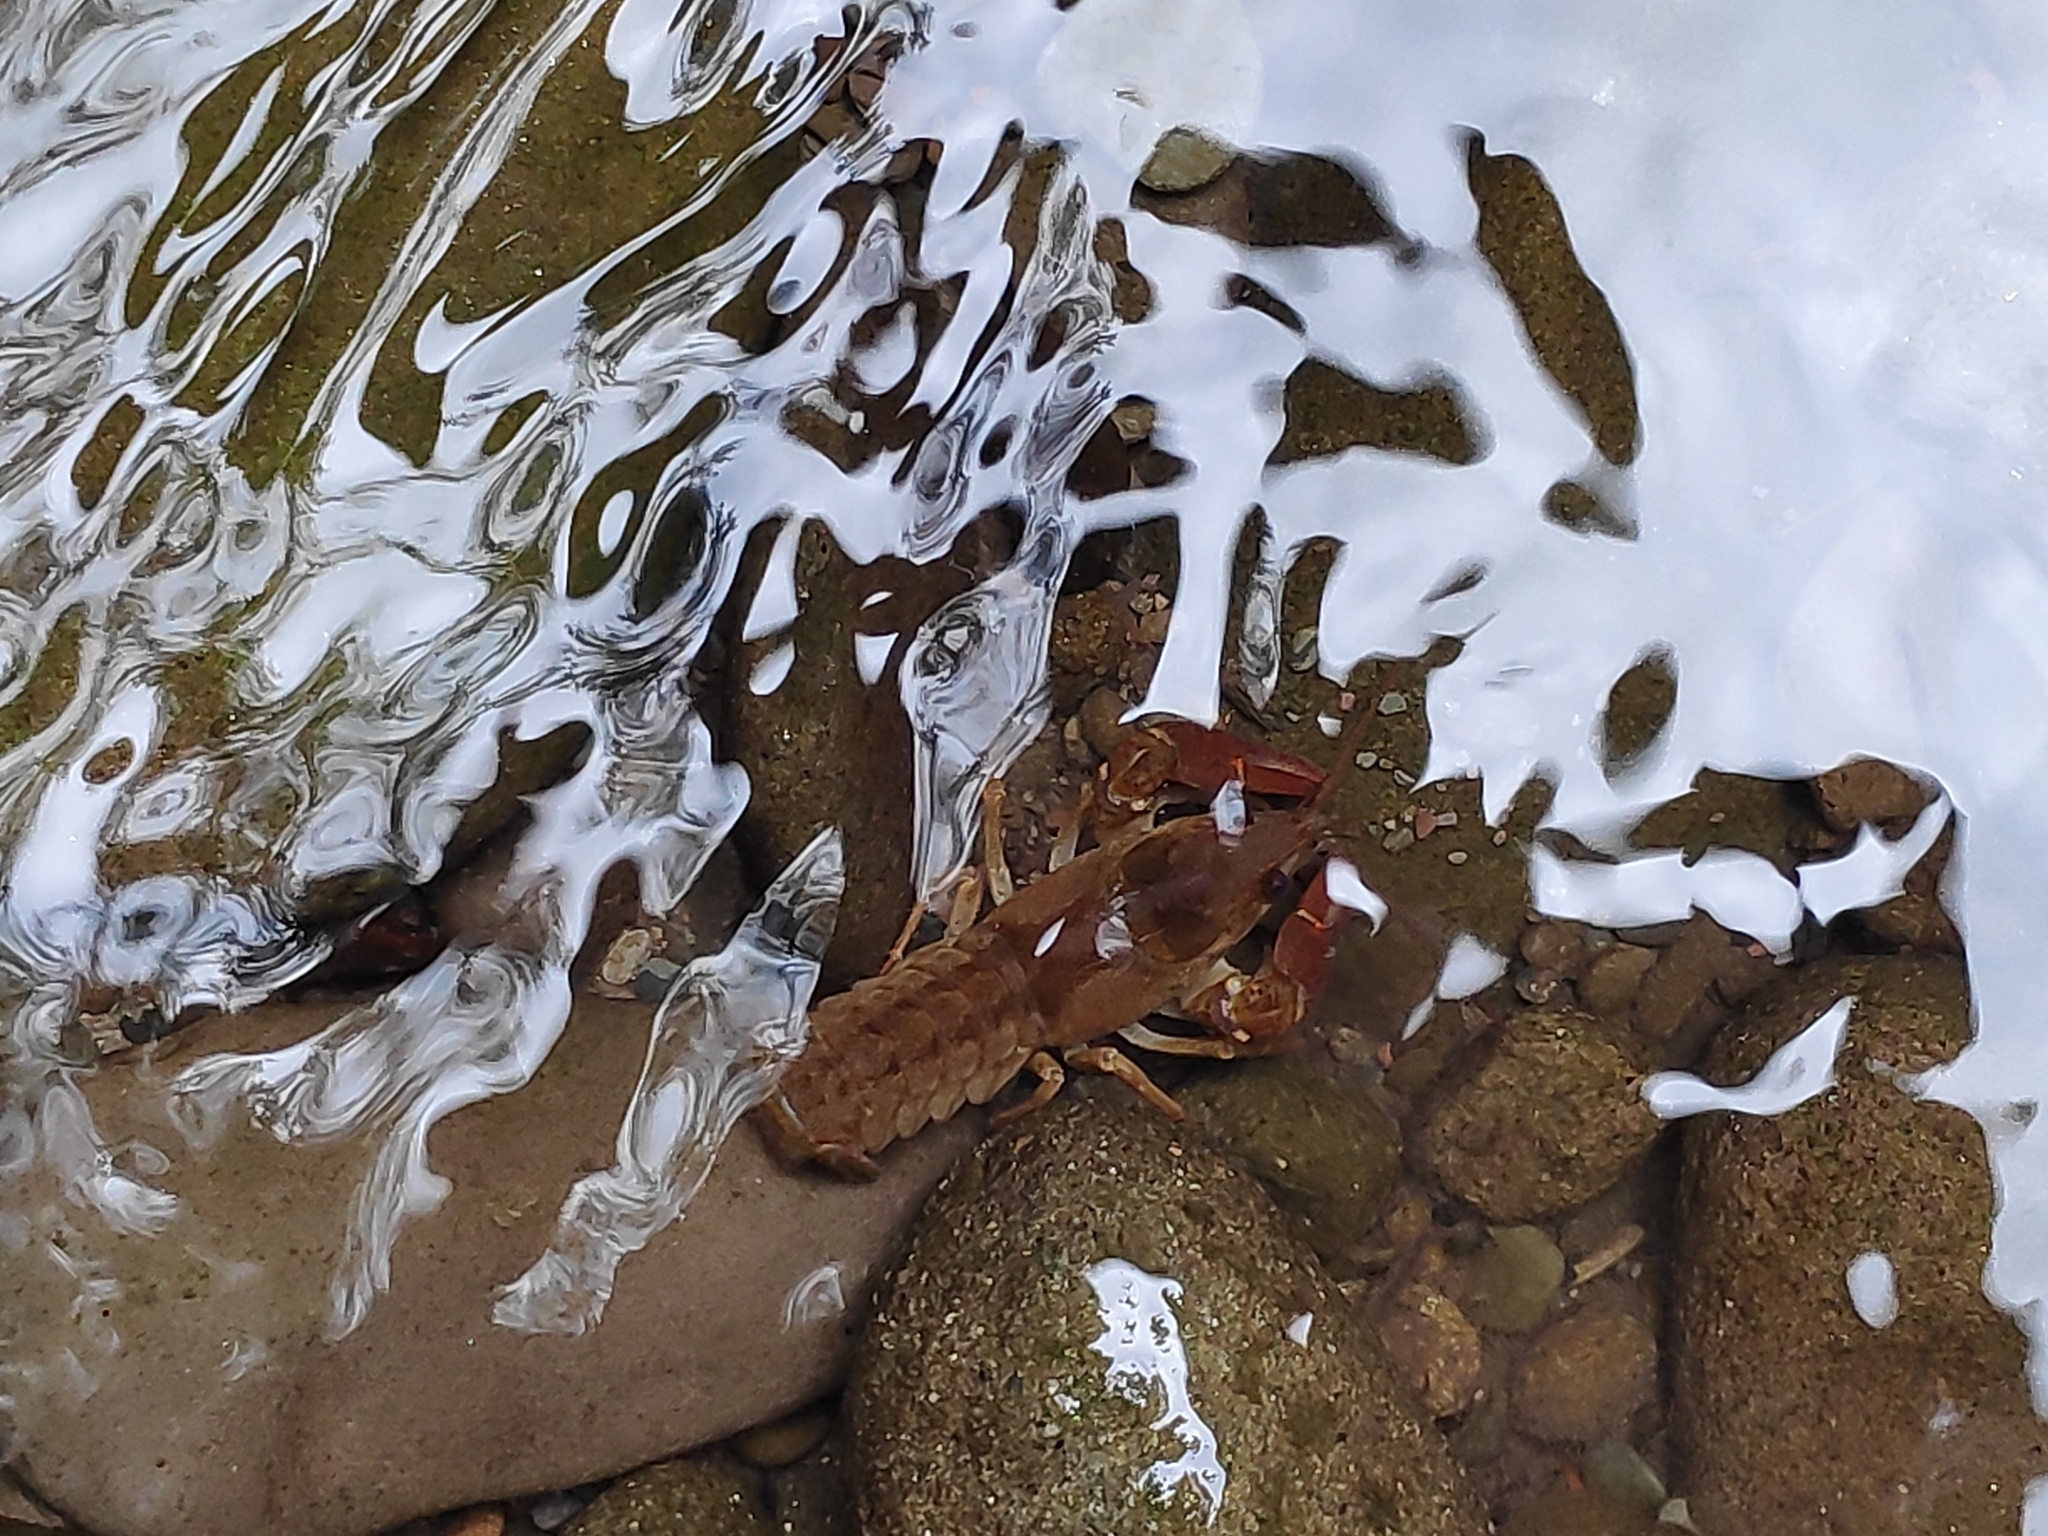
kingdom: Animalia
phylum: Arthropoda
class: Malacostraca
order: Decapoda
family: Astacidae
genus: Austropotamobius
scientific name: Austropotamobius pallipes
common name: White-clawed crayfish
